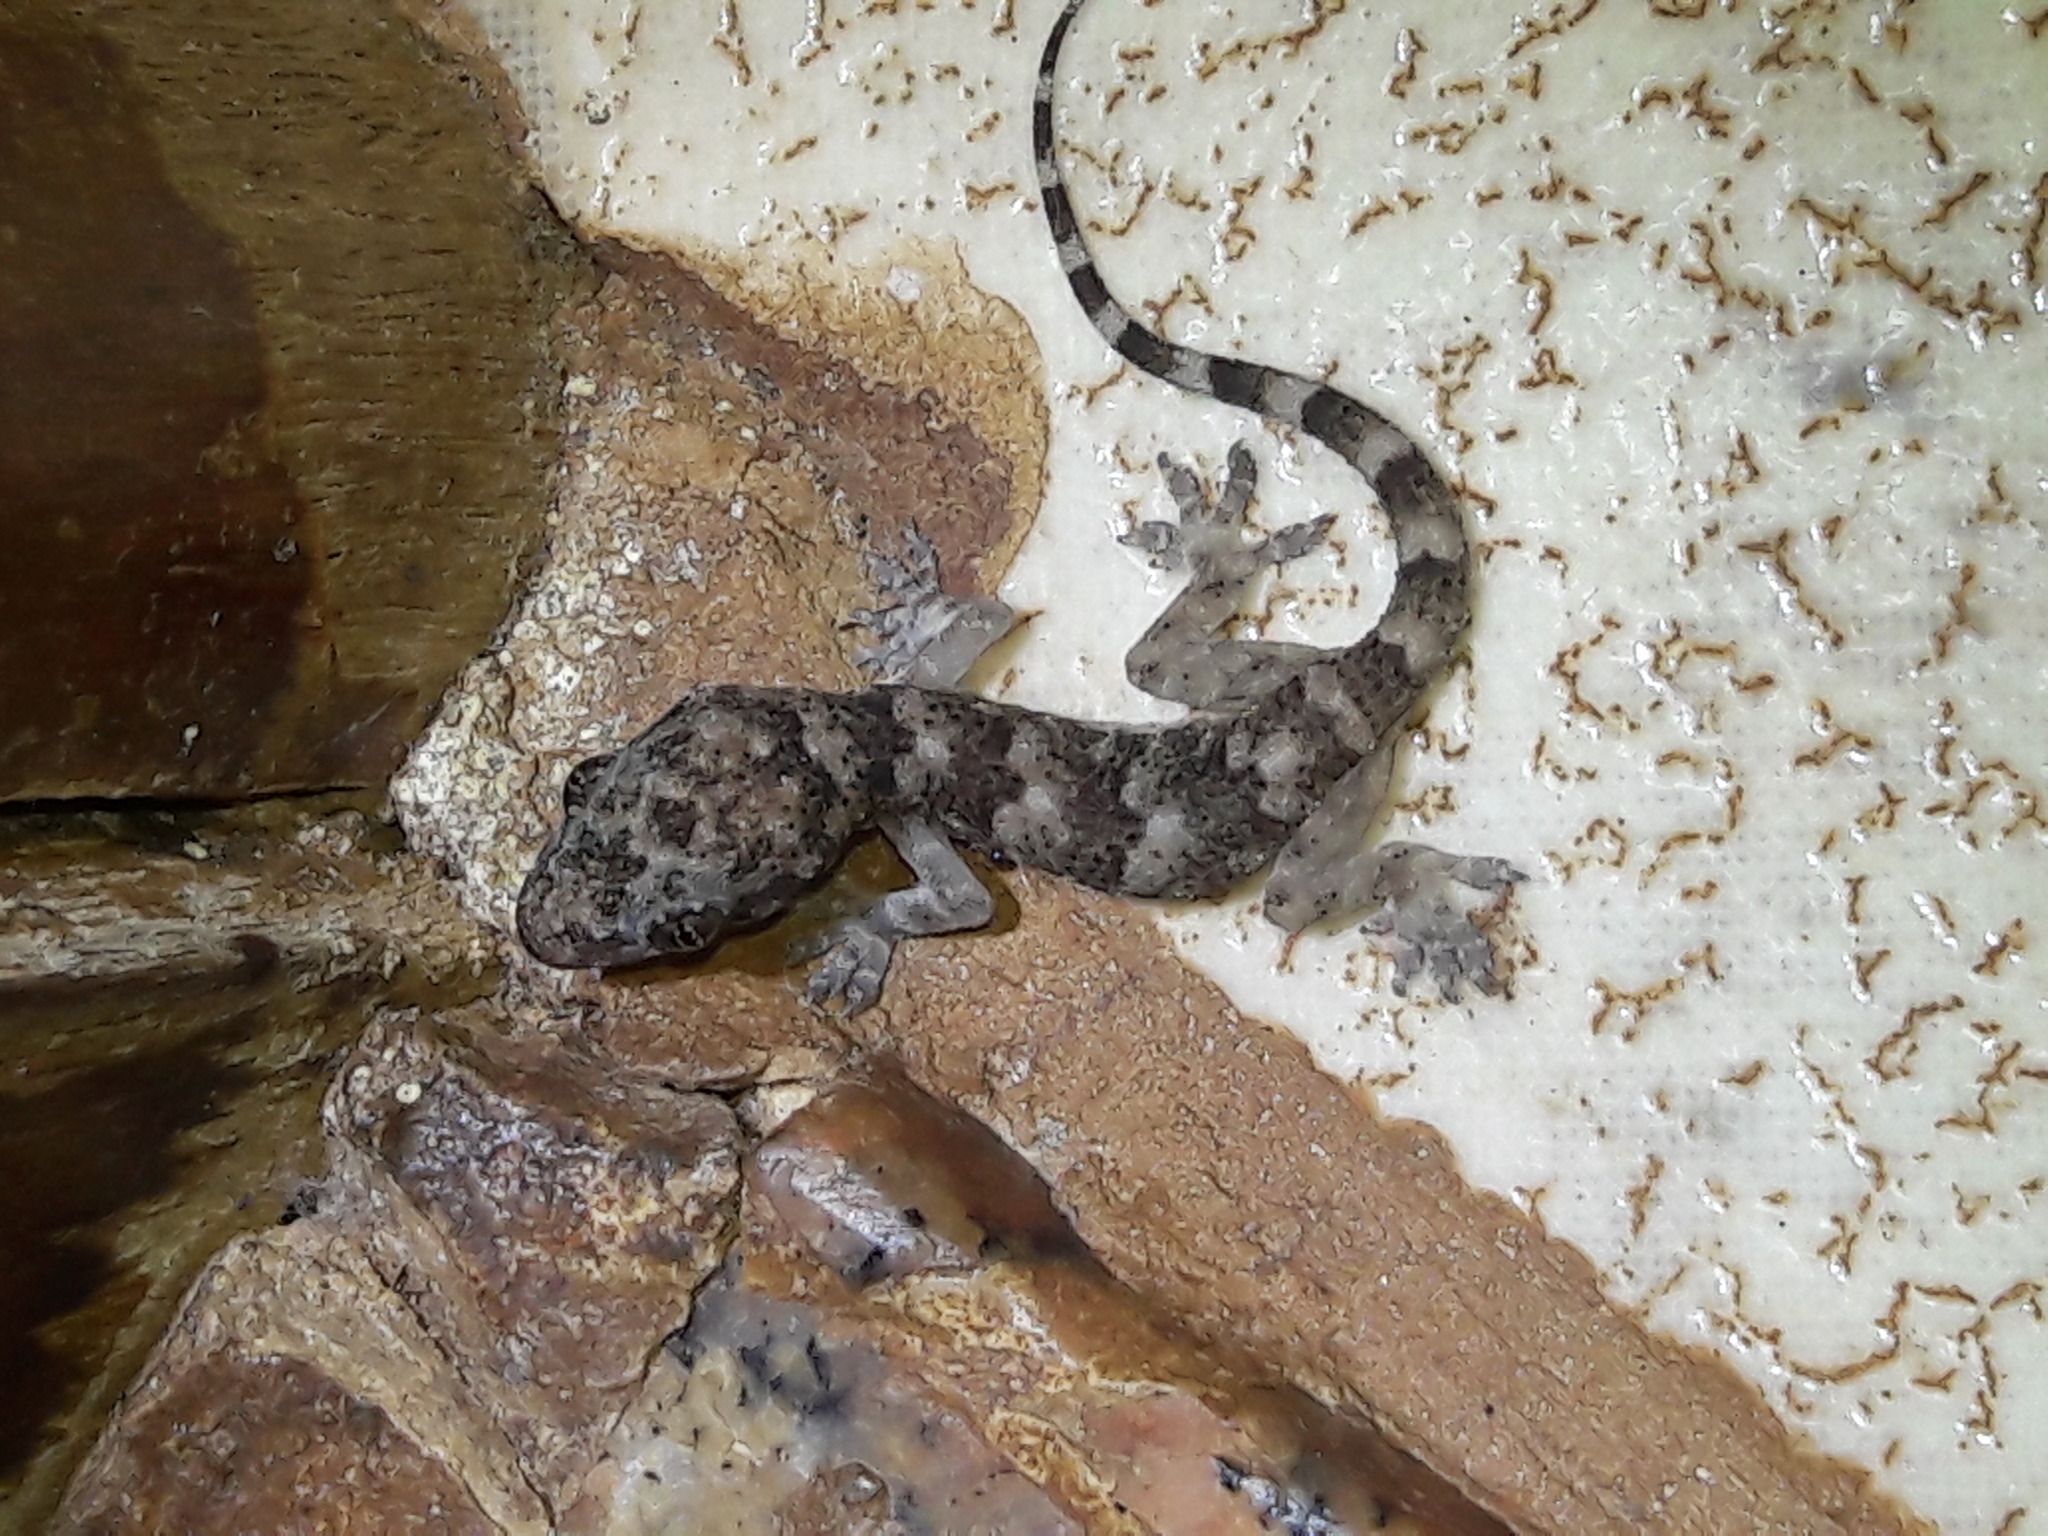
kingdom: Animalia
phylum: Chordata
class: Squamata
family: Gekkonidae
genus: Hemidactylus
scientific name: Hemidactylus mabouia
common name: House gecko
